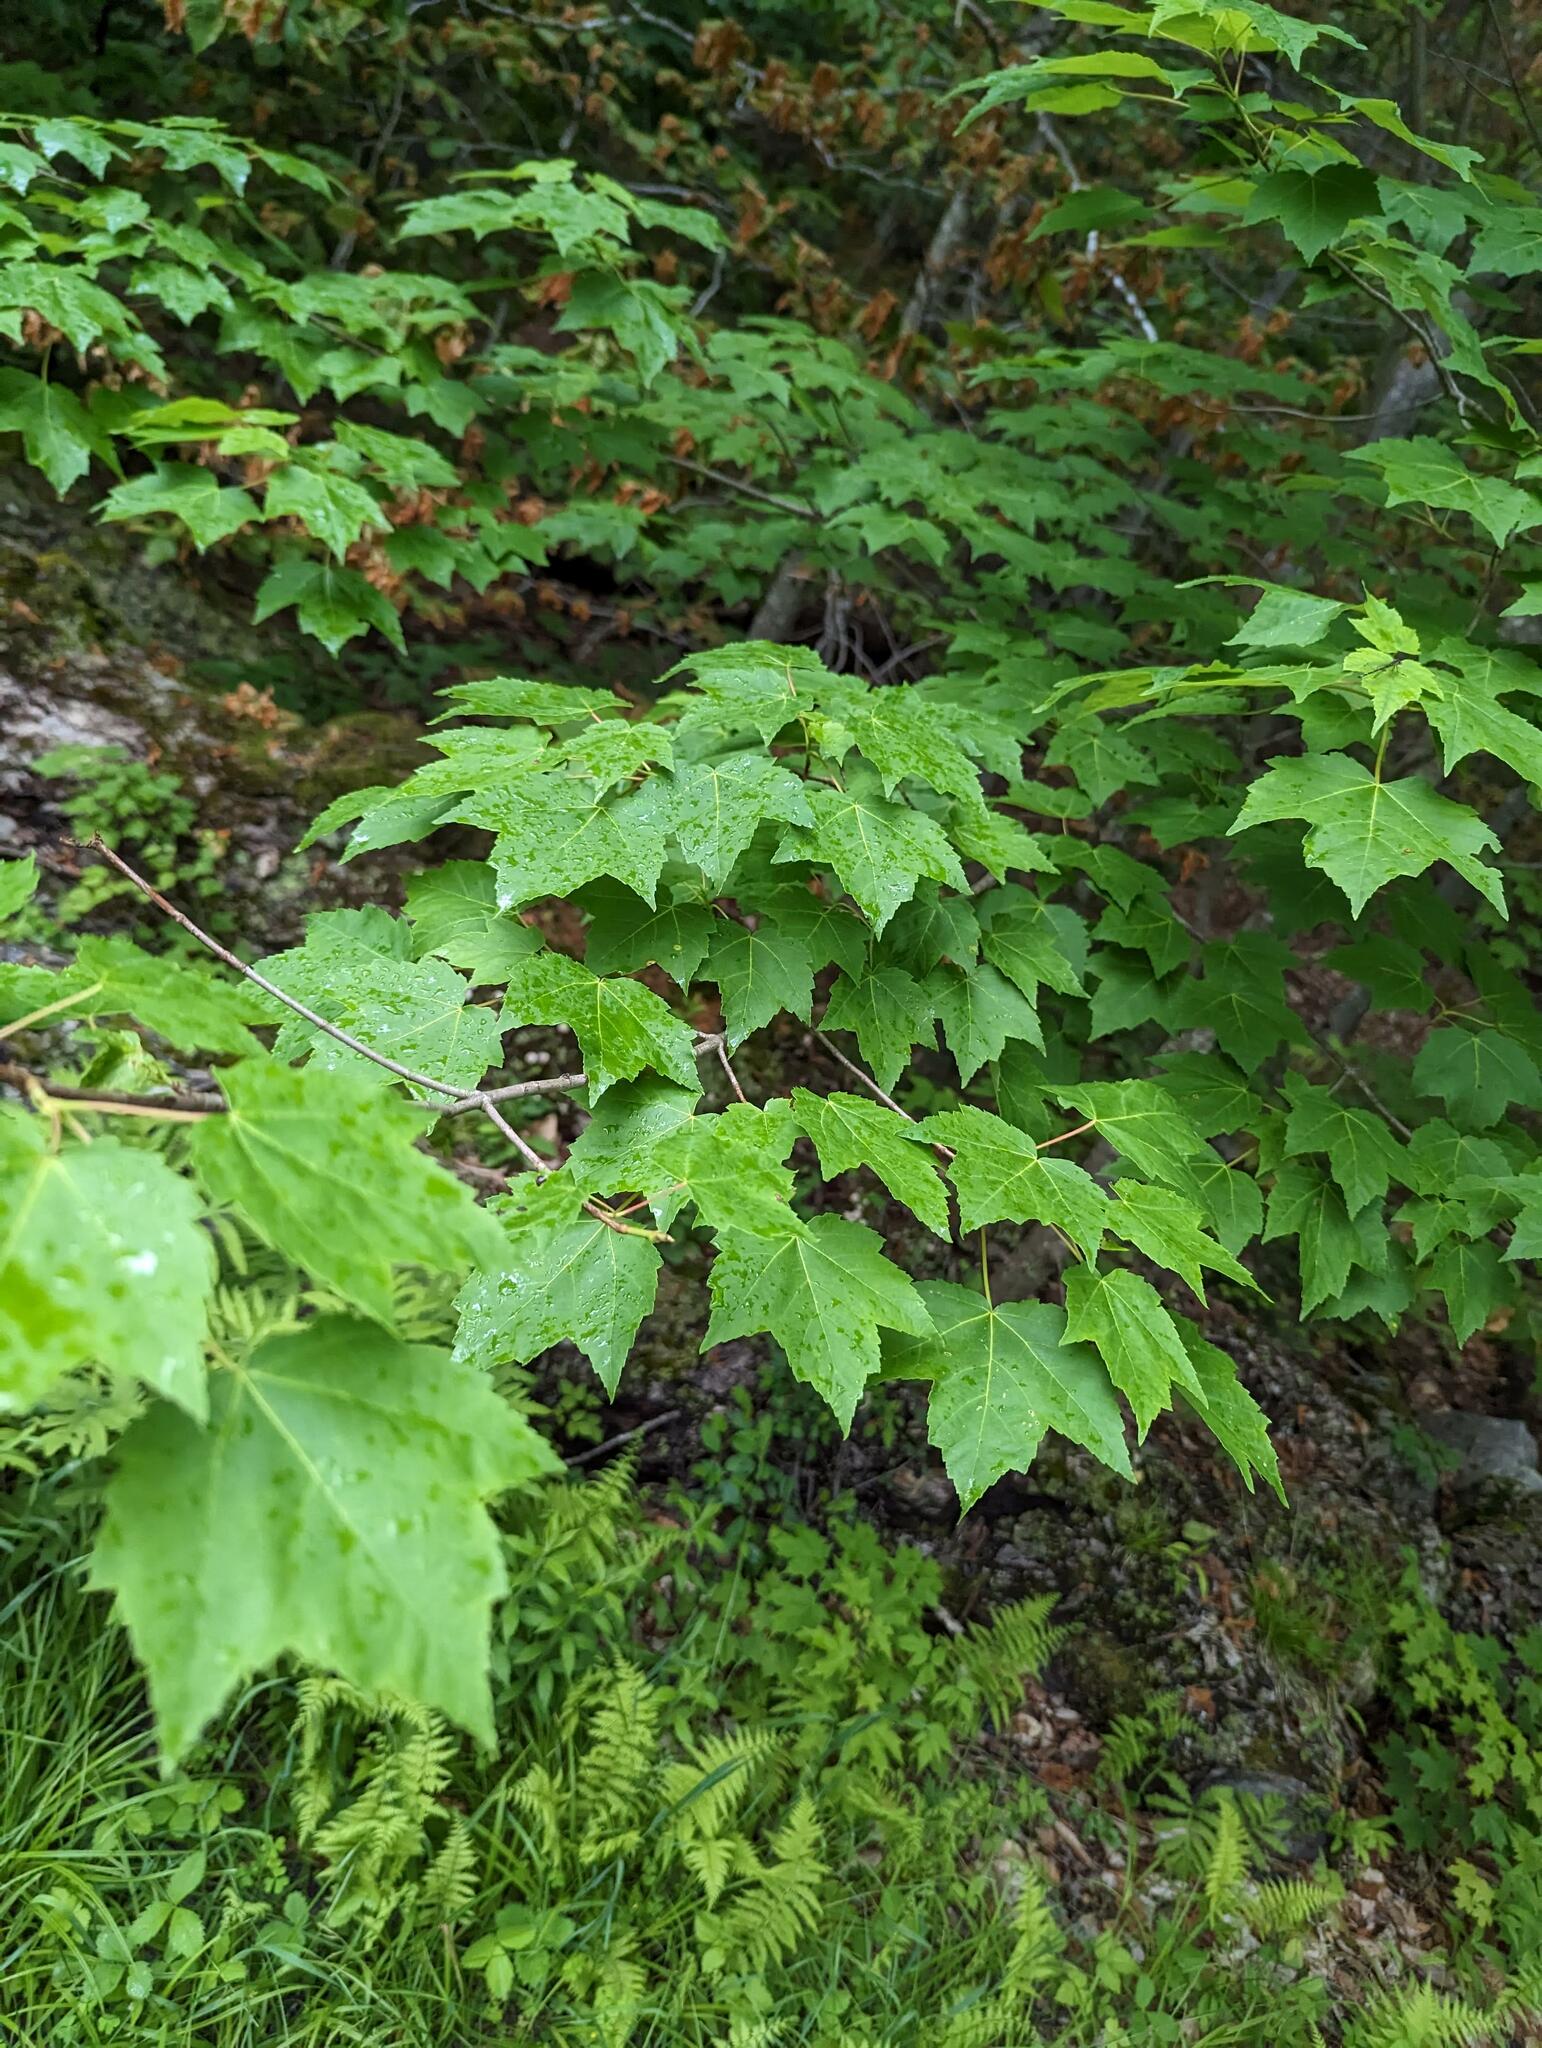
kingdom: Plantae
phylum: Tracheophyta
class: Magnoliopsida
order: Sapindales
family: Sapindaceae
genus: Acer
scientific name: Acer rubrum
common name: Red maple
